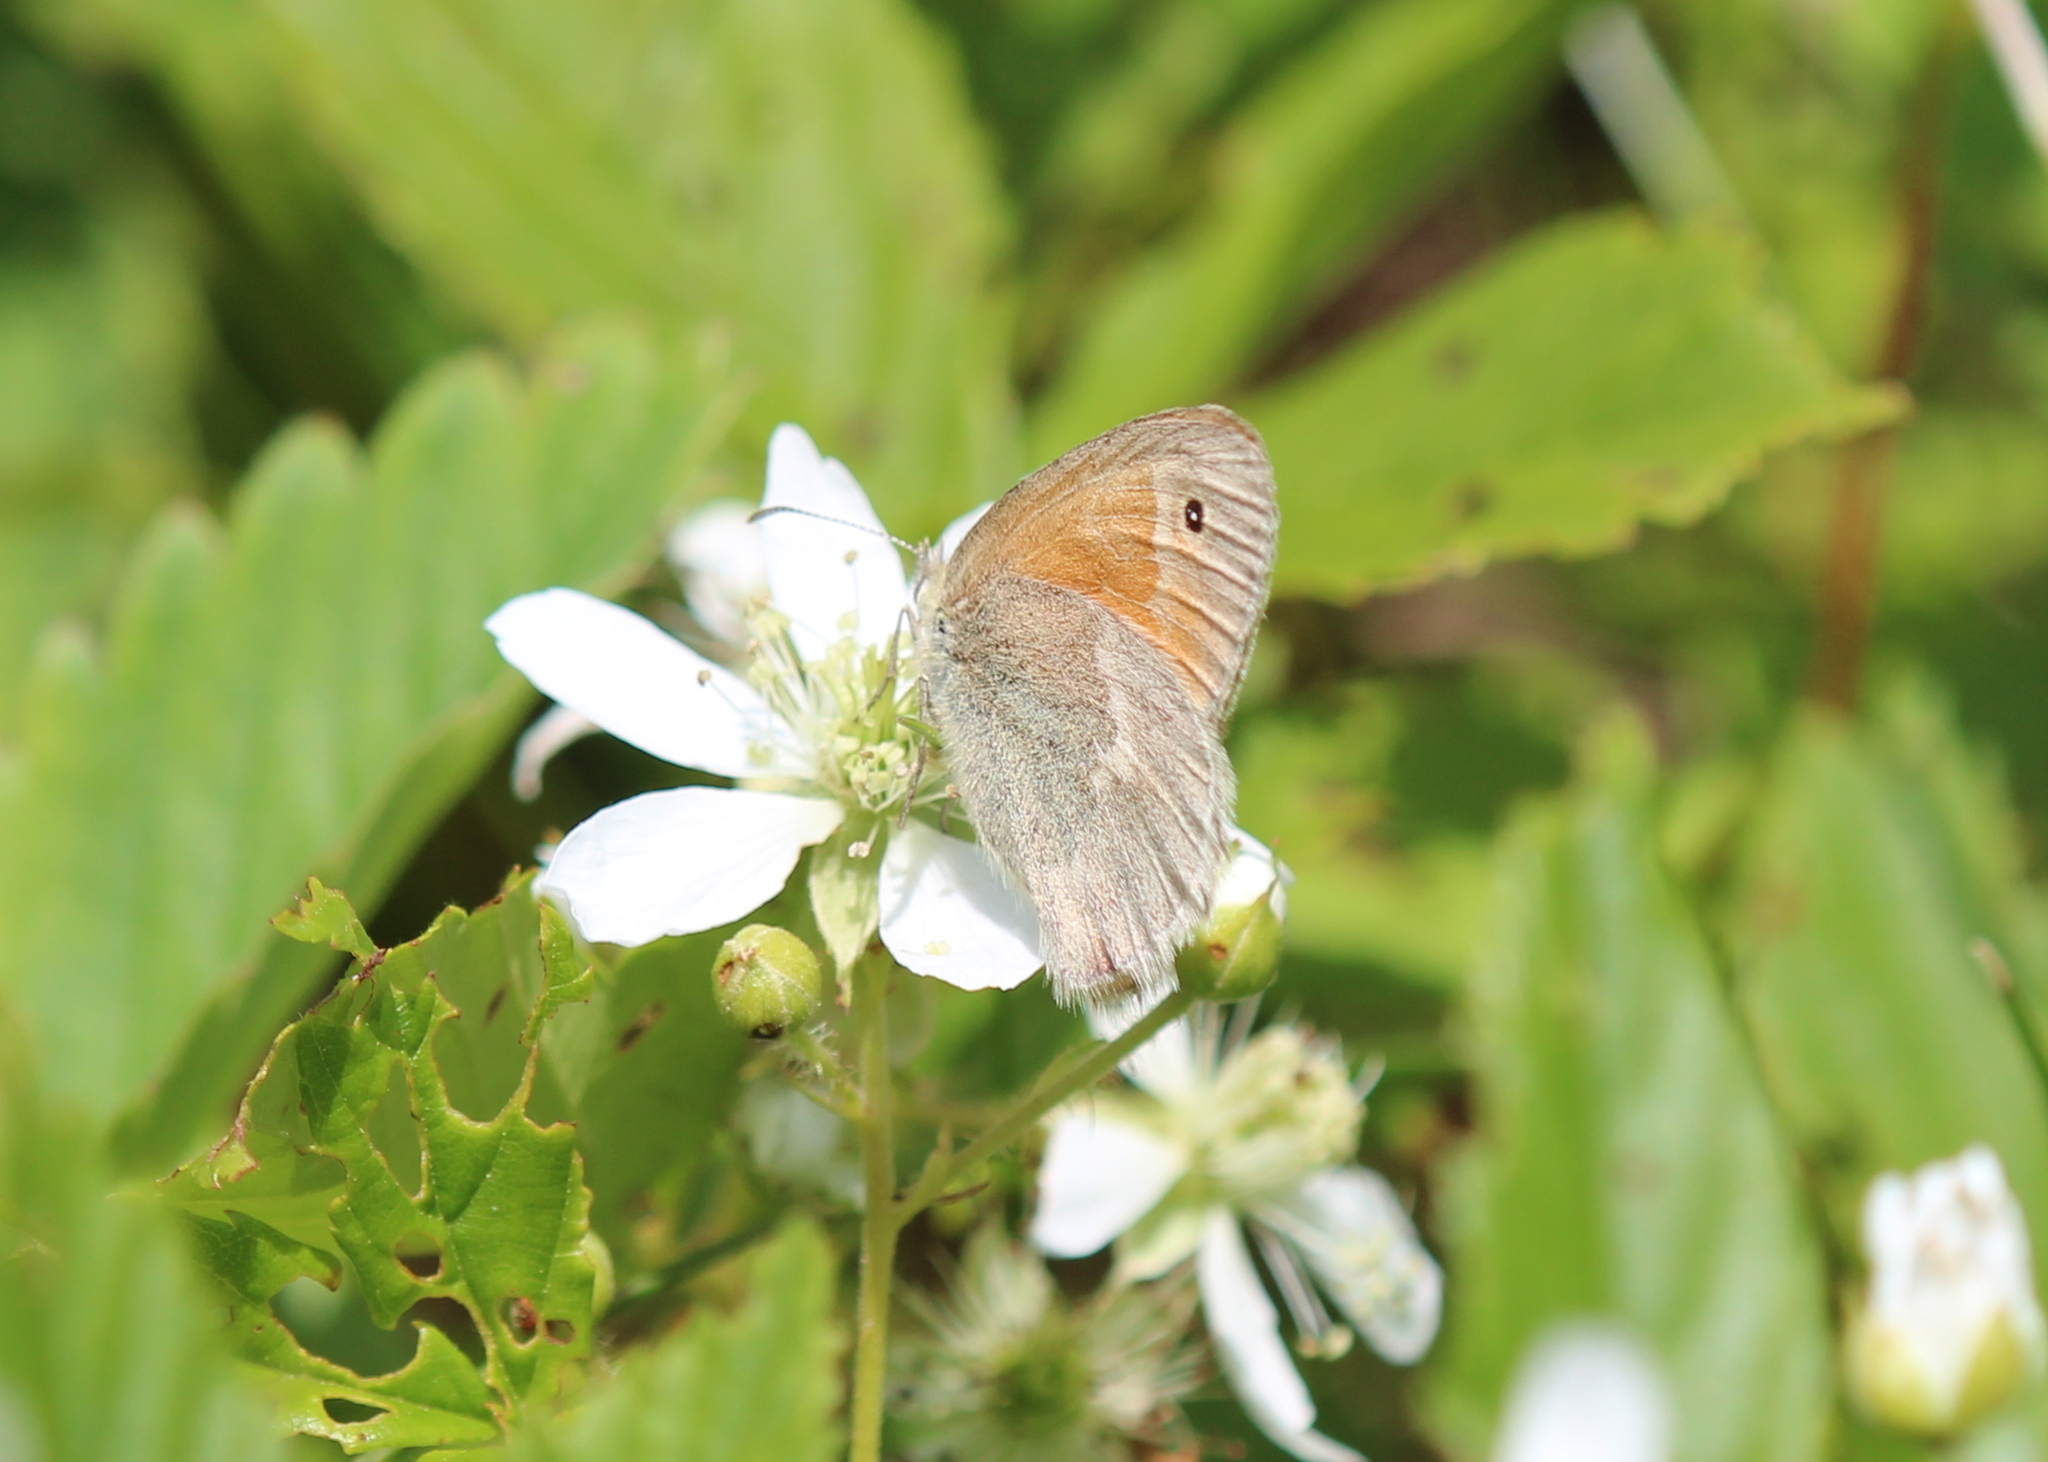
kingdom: Animalia
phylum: Arthropoda
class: Insecta
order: Lepidoptera
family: Nymphalidae
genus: Coenonympha
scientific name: Coenonympha california
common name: Common ringlet
